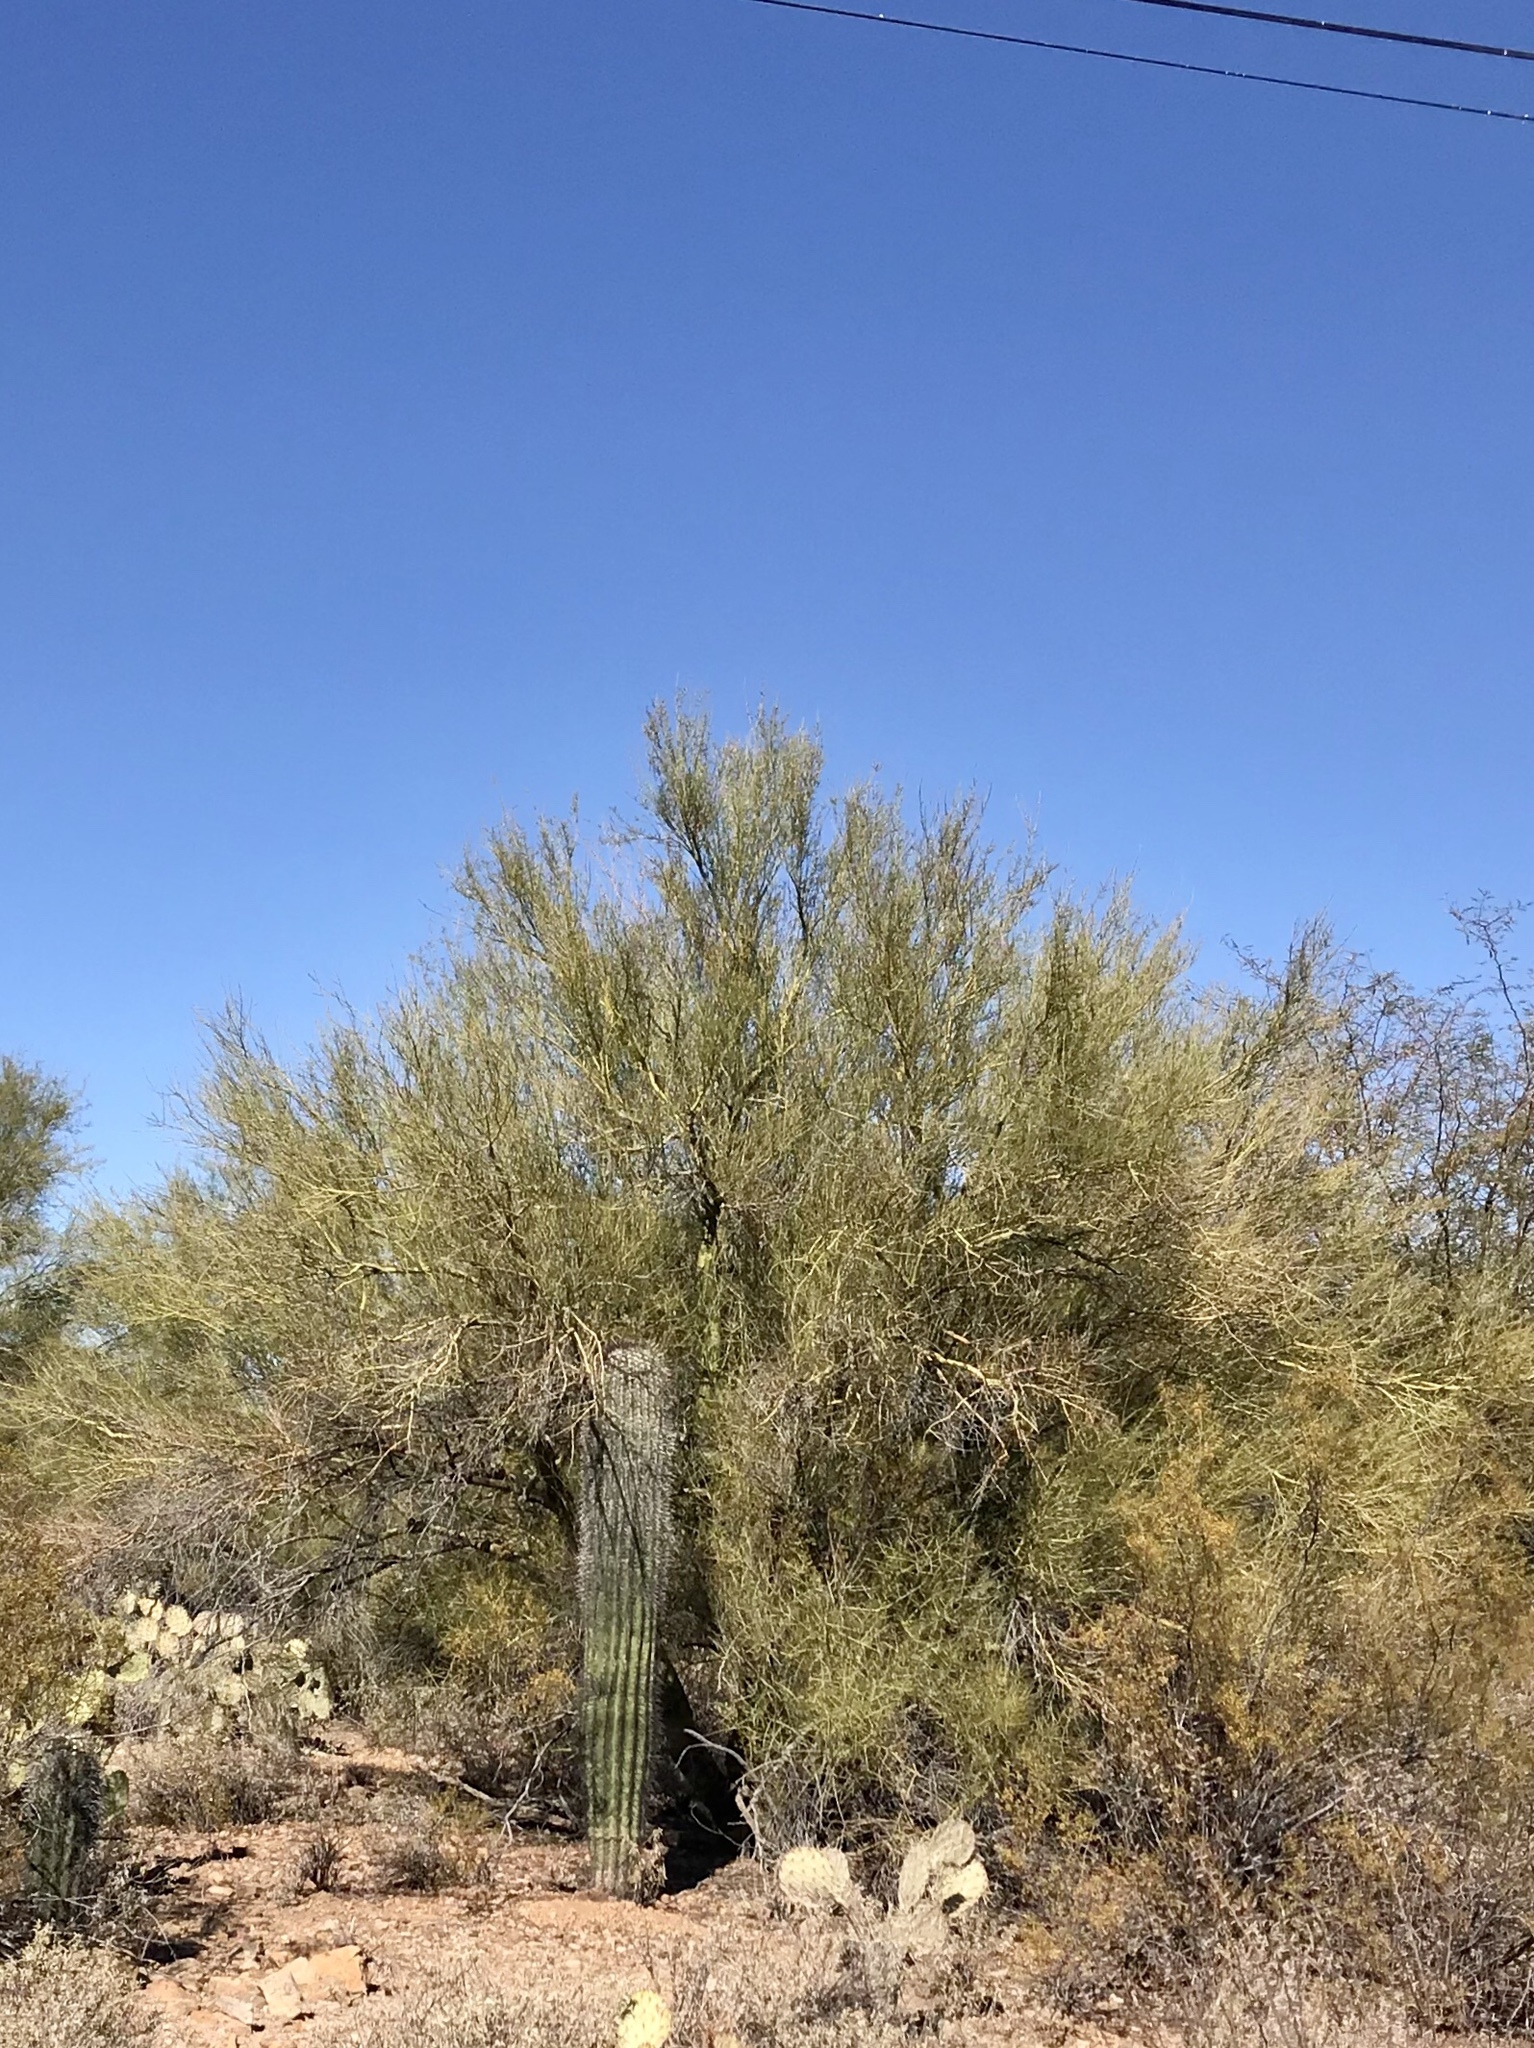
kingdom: Plantae
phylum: Tracheophyta
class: Magnoliopsida
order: Fabales
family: Fabaceae
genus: Parkinsonia
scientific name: Parkinsonia microphylla
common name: Yellow paloverde
